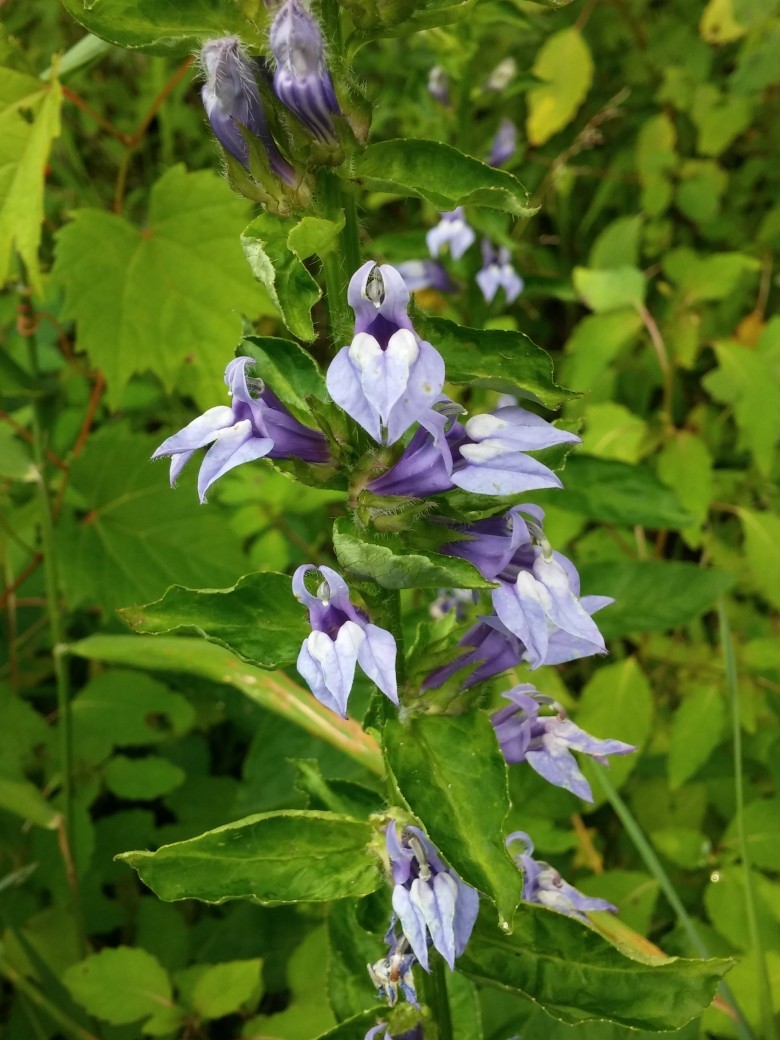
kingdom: Plantae
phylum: Tracheophyta
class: Magnoliopsida
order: Asterales
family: Campanulaceae
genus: Lobelia
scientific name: Lobelia siphilitica
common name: Great lobelia
